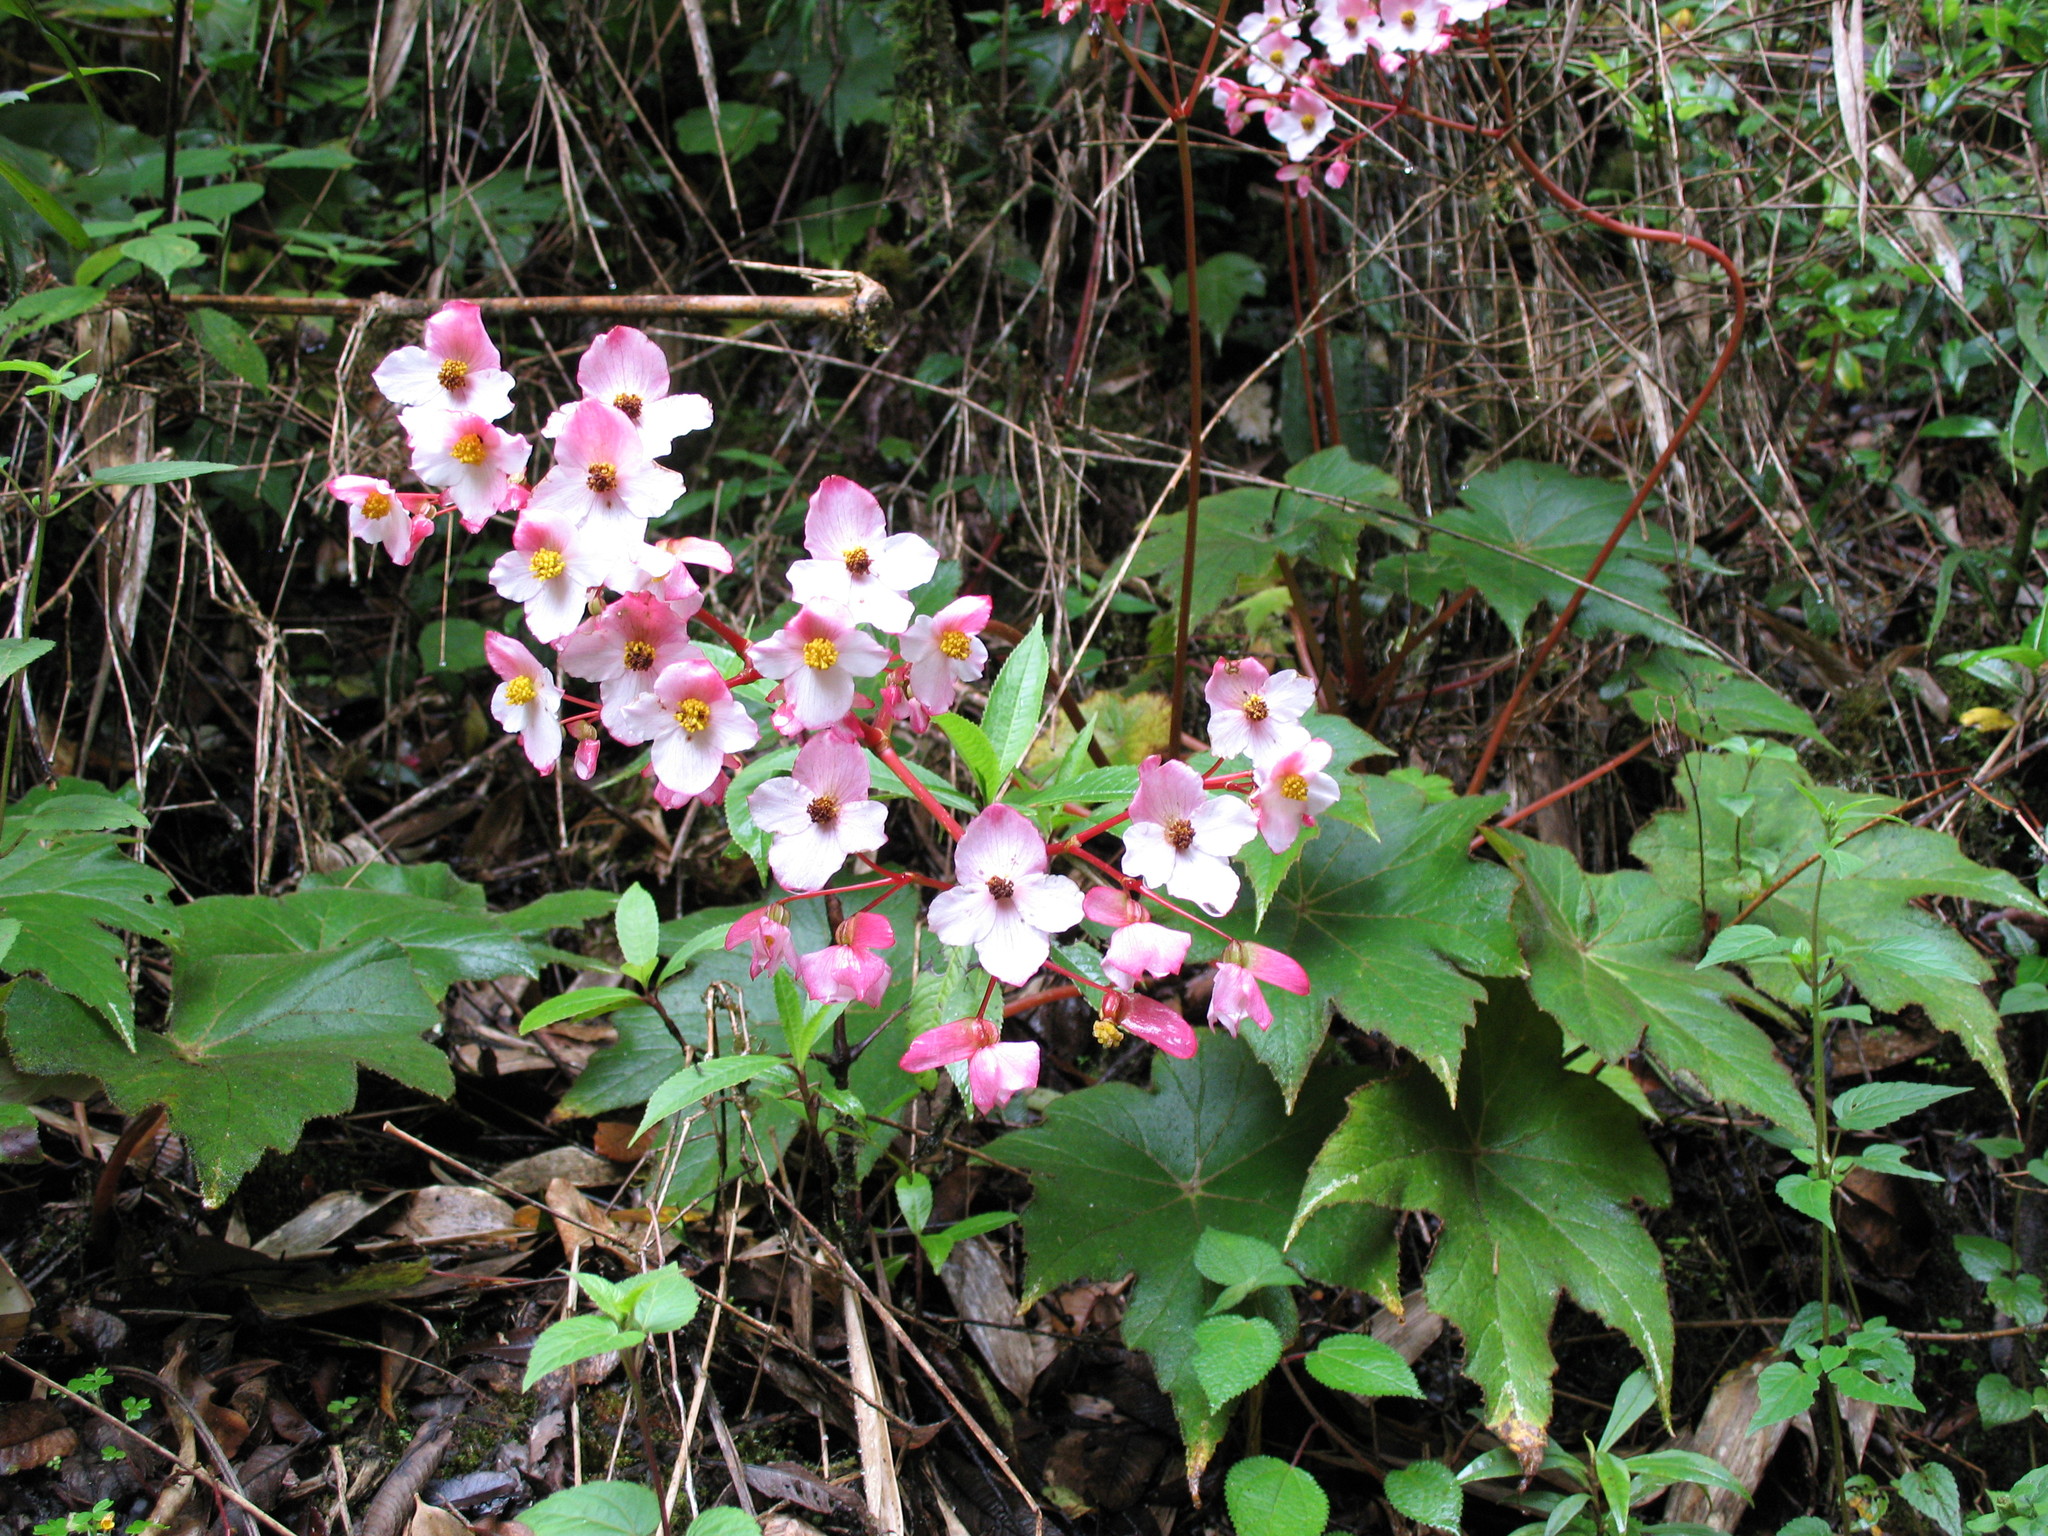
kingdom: Plantae
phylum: Tracheophyta
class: Magnoliopsida
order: Cucurbitales
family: Begoniaceae
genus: Begonia
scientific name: Begonia acerifolia
